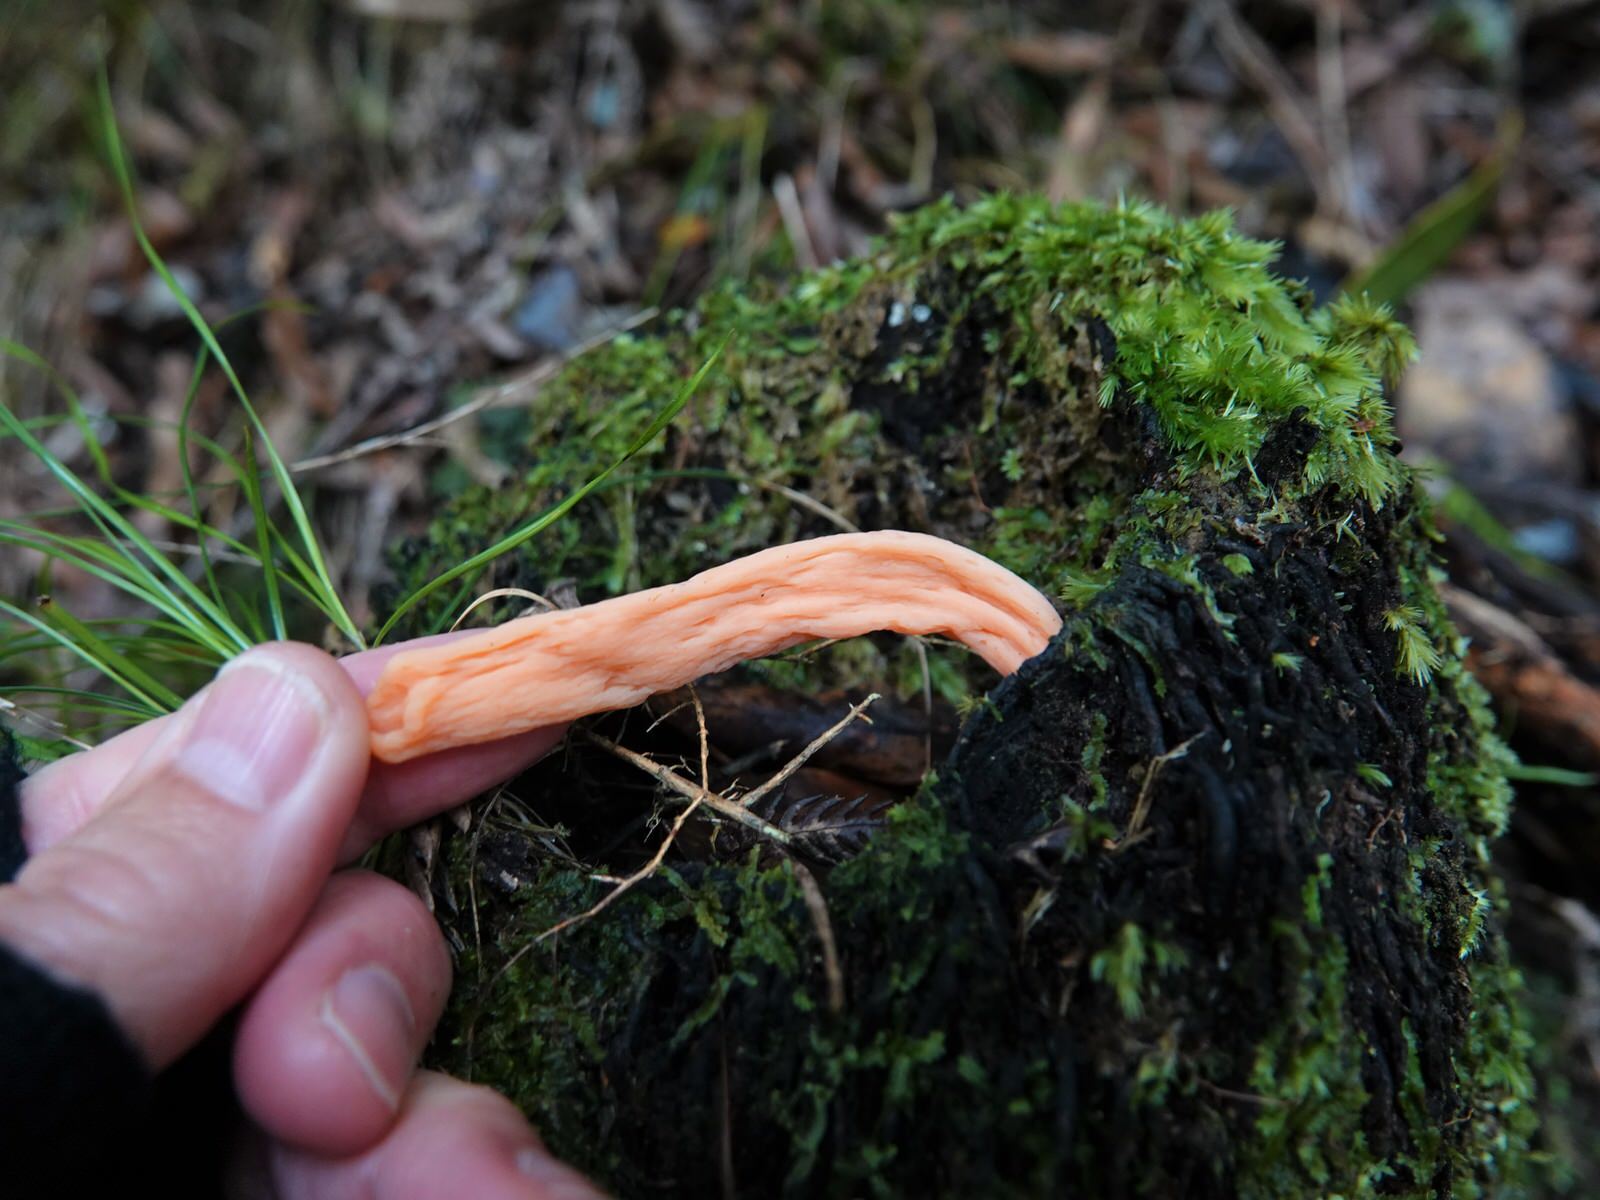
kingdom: Fungi
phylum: Basidiomycota
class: Agaricomycetes
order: Agaricales
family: Clavariaceae
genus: Clavulinopsis
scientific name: Clavulinopsis sulcata
